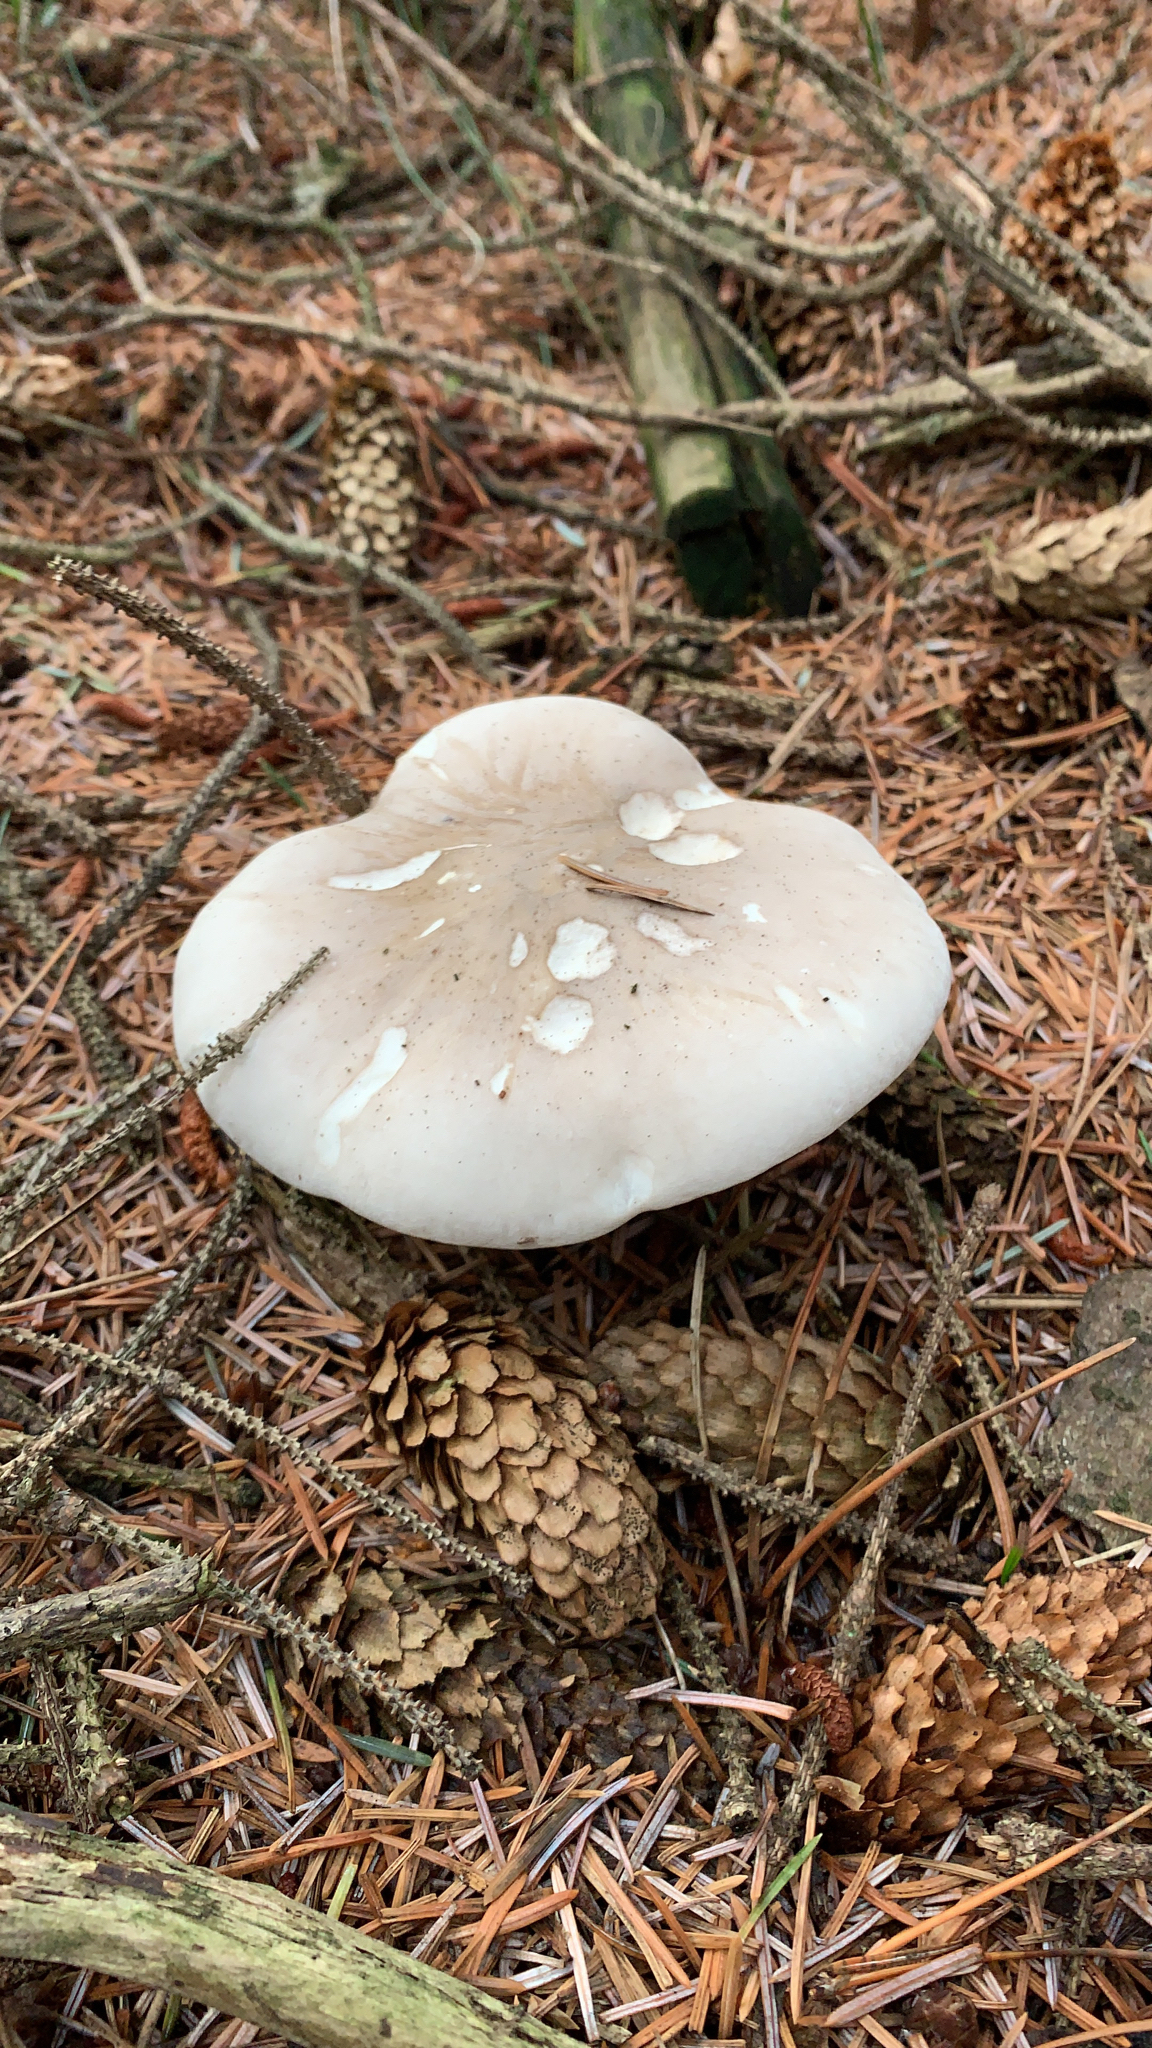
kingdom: Fungi
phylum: Basidiomycota
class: Agaricomycetes
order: Agaricales
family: Tricholomataceae
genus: Clitocybe
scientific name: Clitocybe nebularis
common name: Clouded agaric
